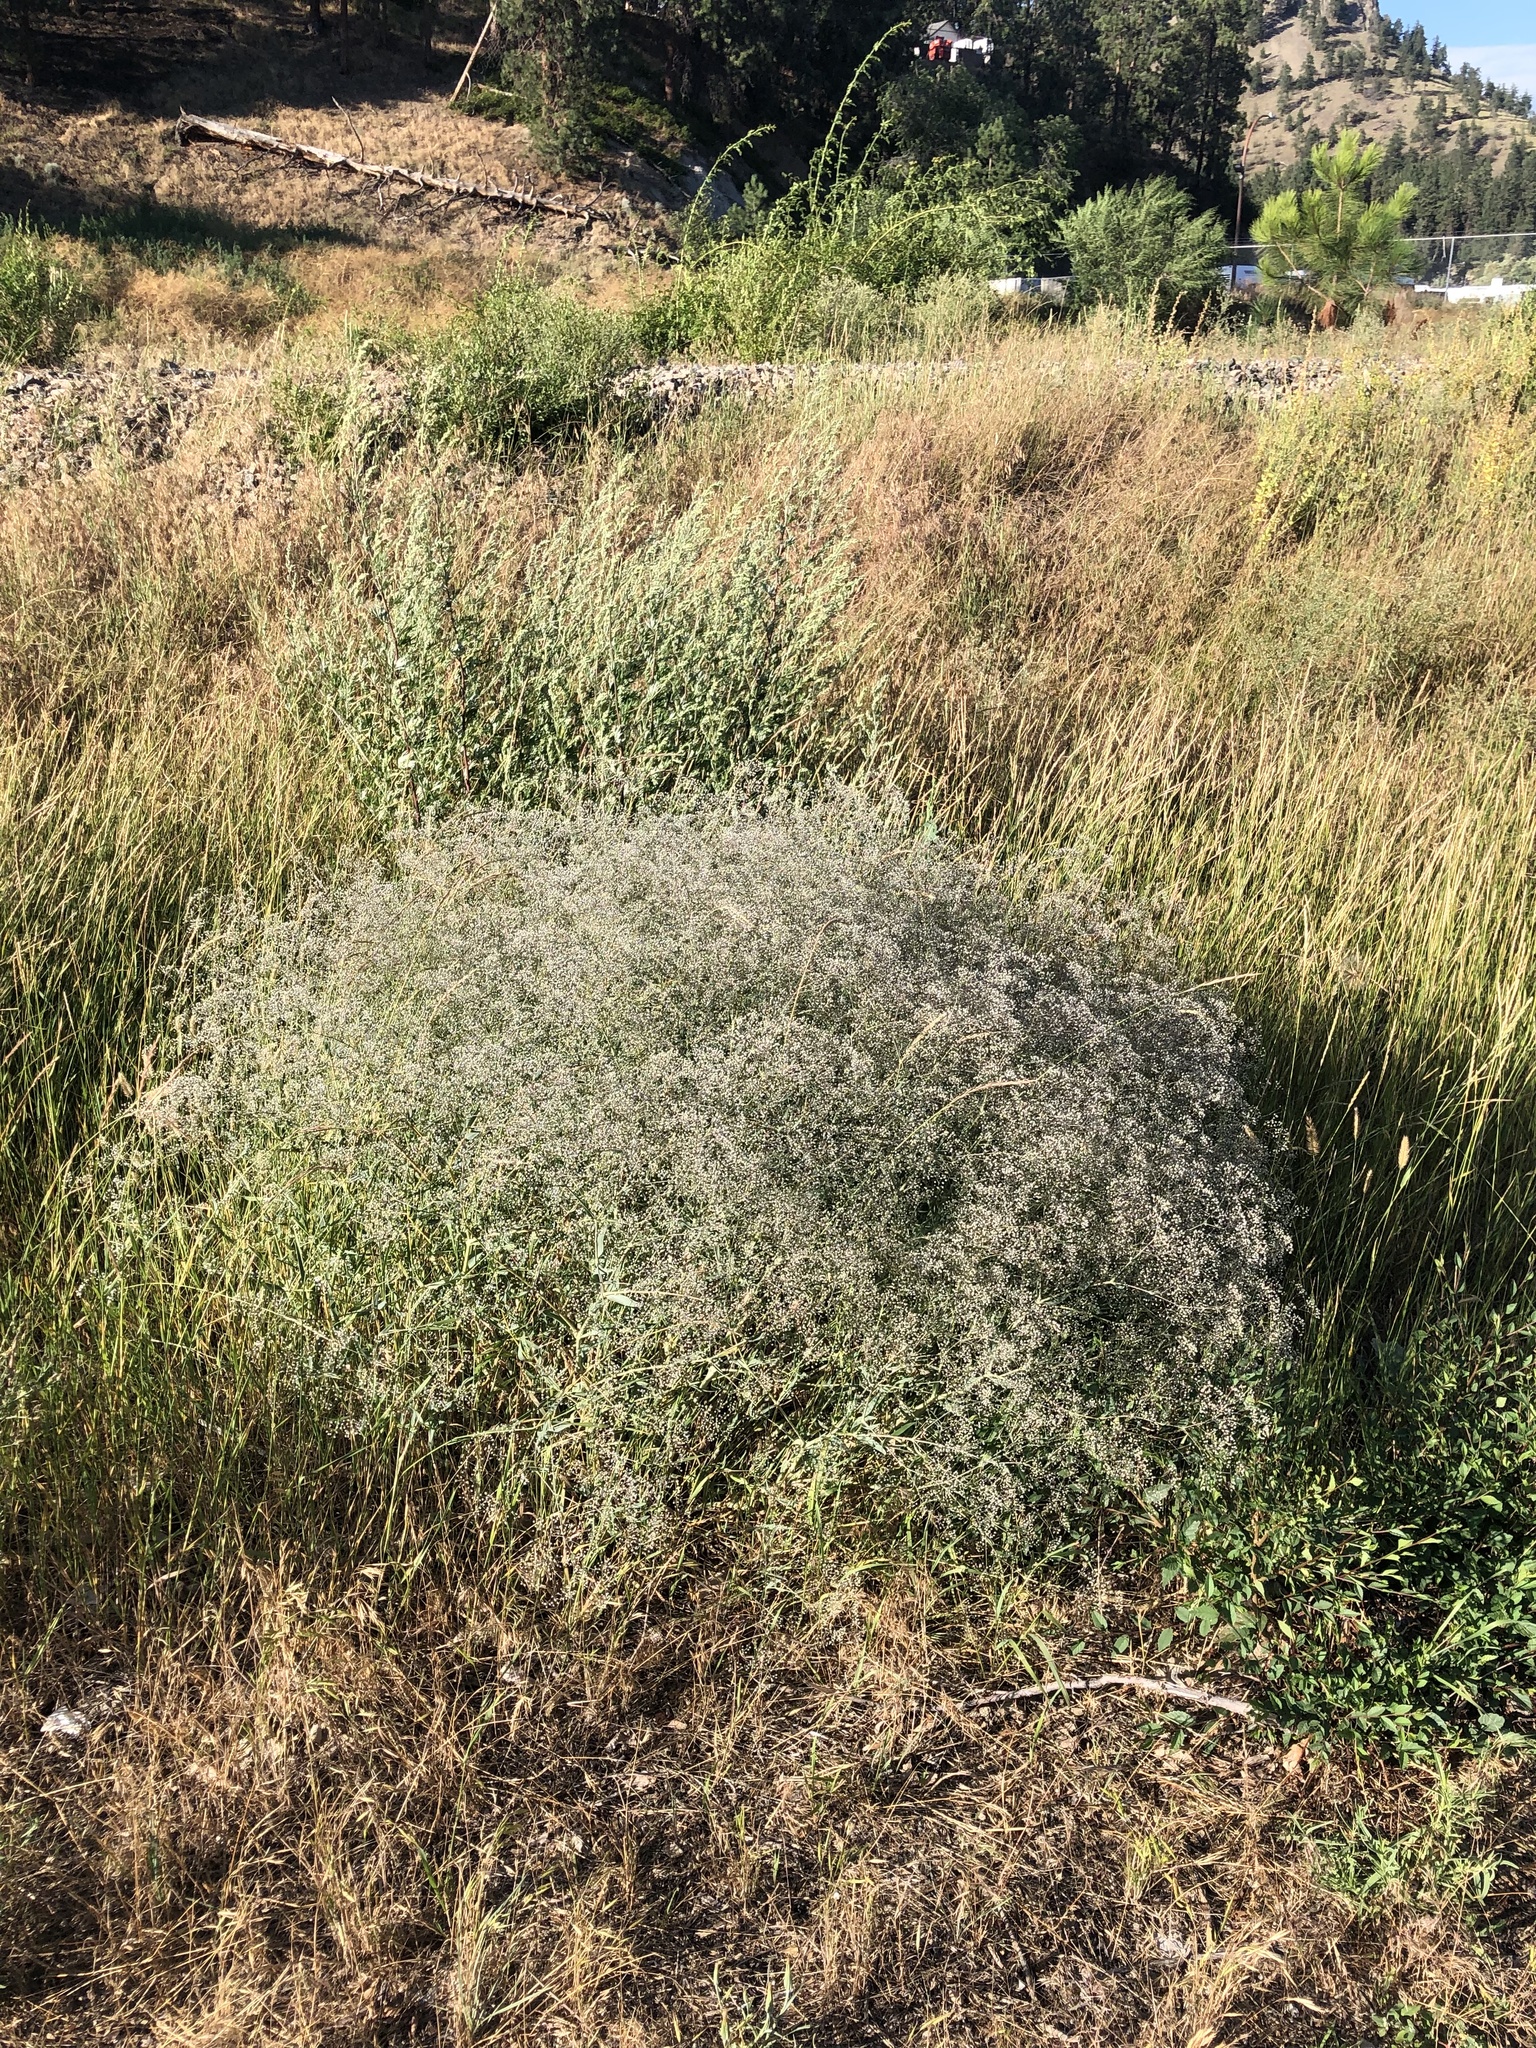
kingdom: Plantae
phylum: Tracheophyta
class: Magnoliopsida
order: Caryophyllales
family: Caryophyllaceae
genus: Gypsophila
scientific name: Gypsophila paniculata
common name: Baby's-breath
